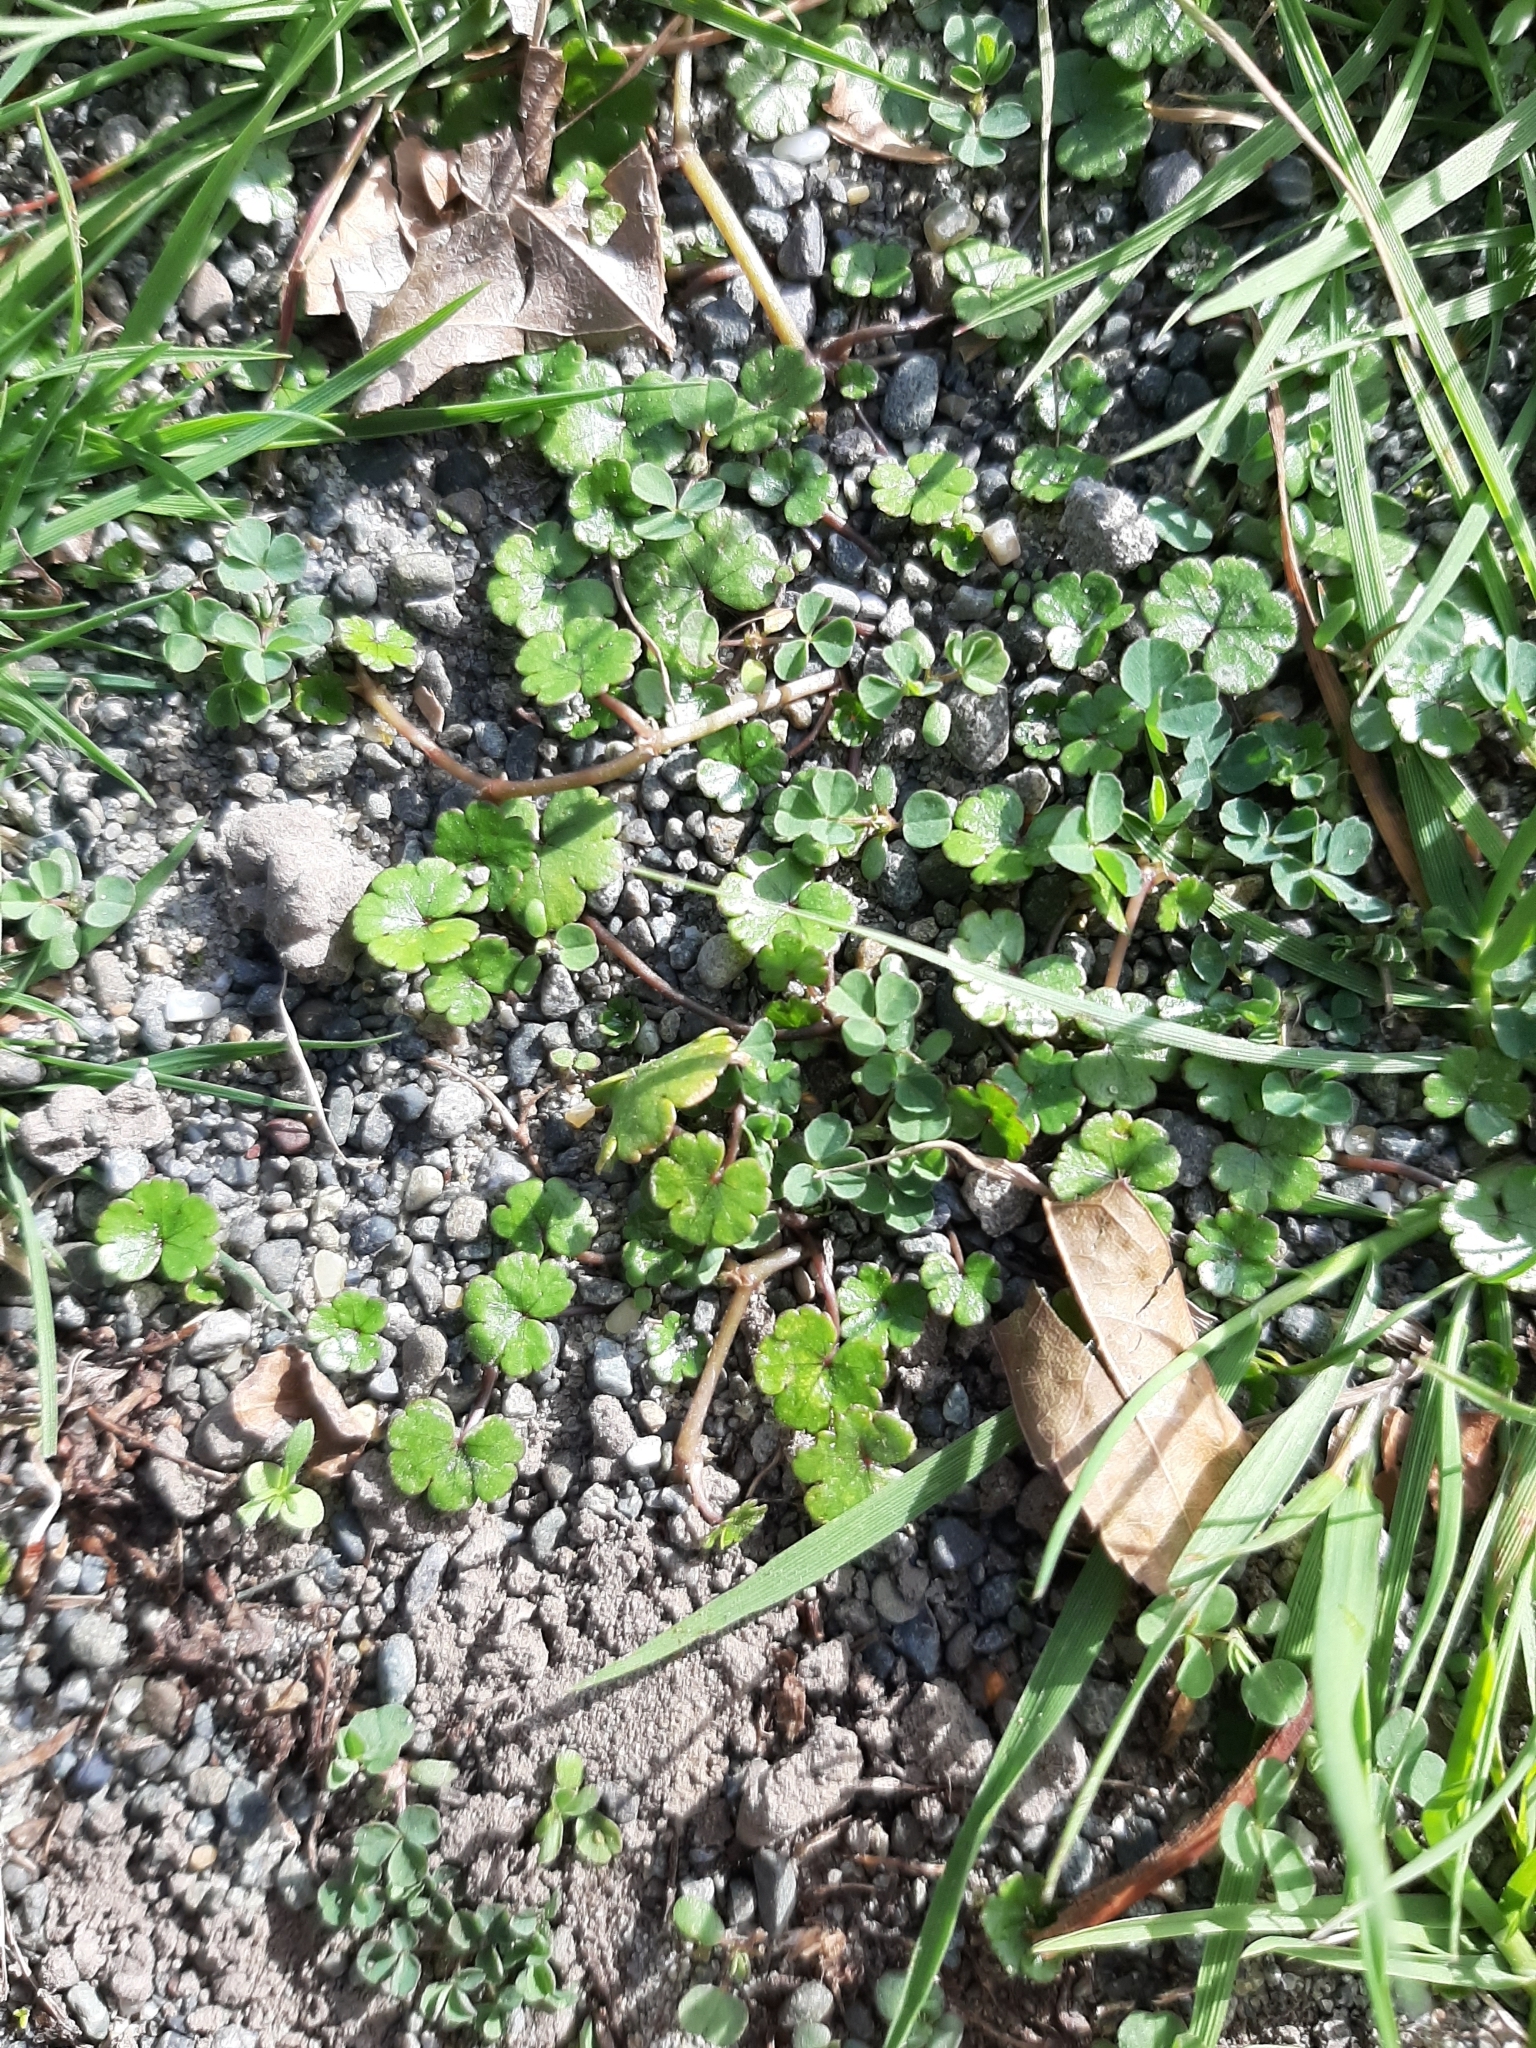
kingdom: Plantae
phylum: Tracheophyta
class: Magnoliopsida
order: Apiales
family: Araliaceae
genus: Hydrocotyle
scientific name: Hydrocotyle microphylla
